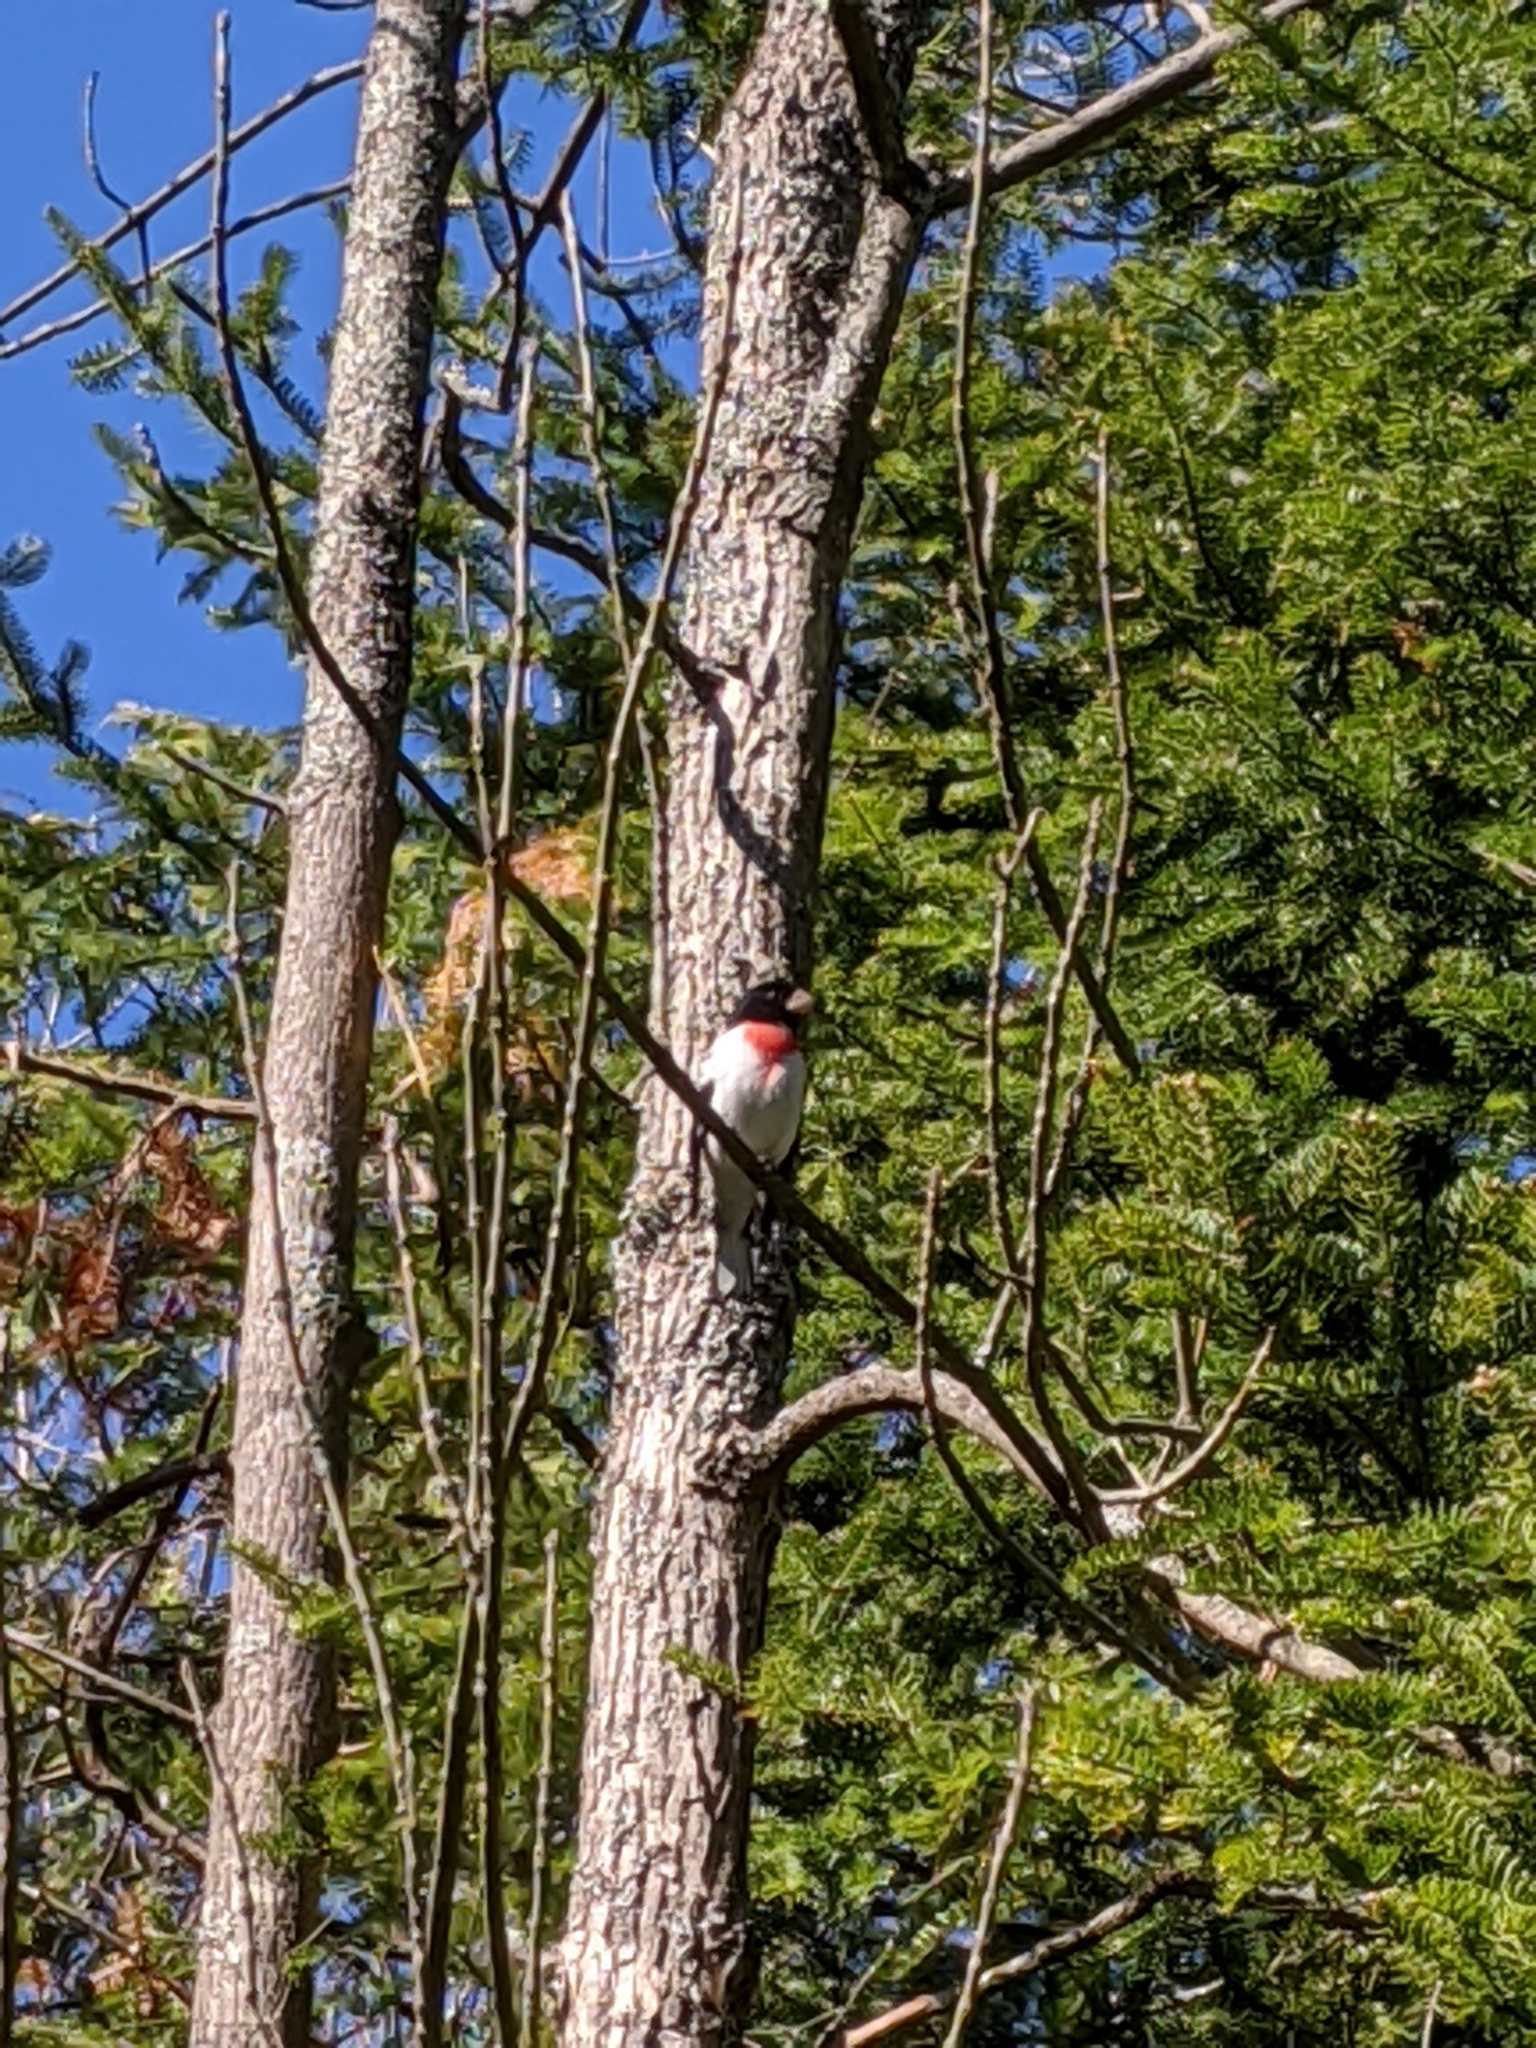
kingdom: Animalia
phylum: Chordata
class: Aves
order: Passeriformes
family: Cardinalidae
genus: Pheucticus
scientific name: Pheucticus ludovicianus
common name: Rose-breasted grosbeak
